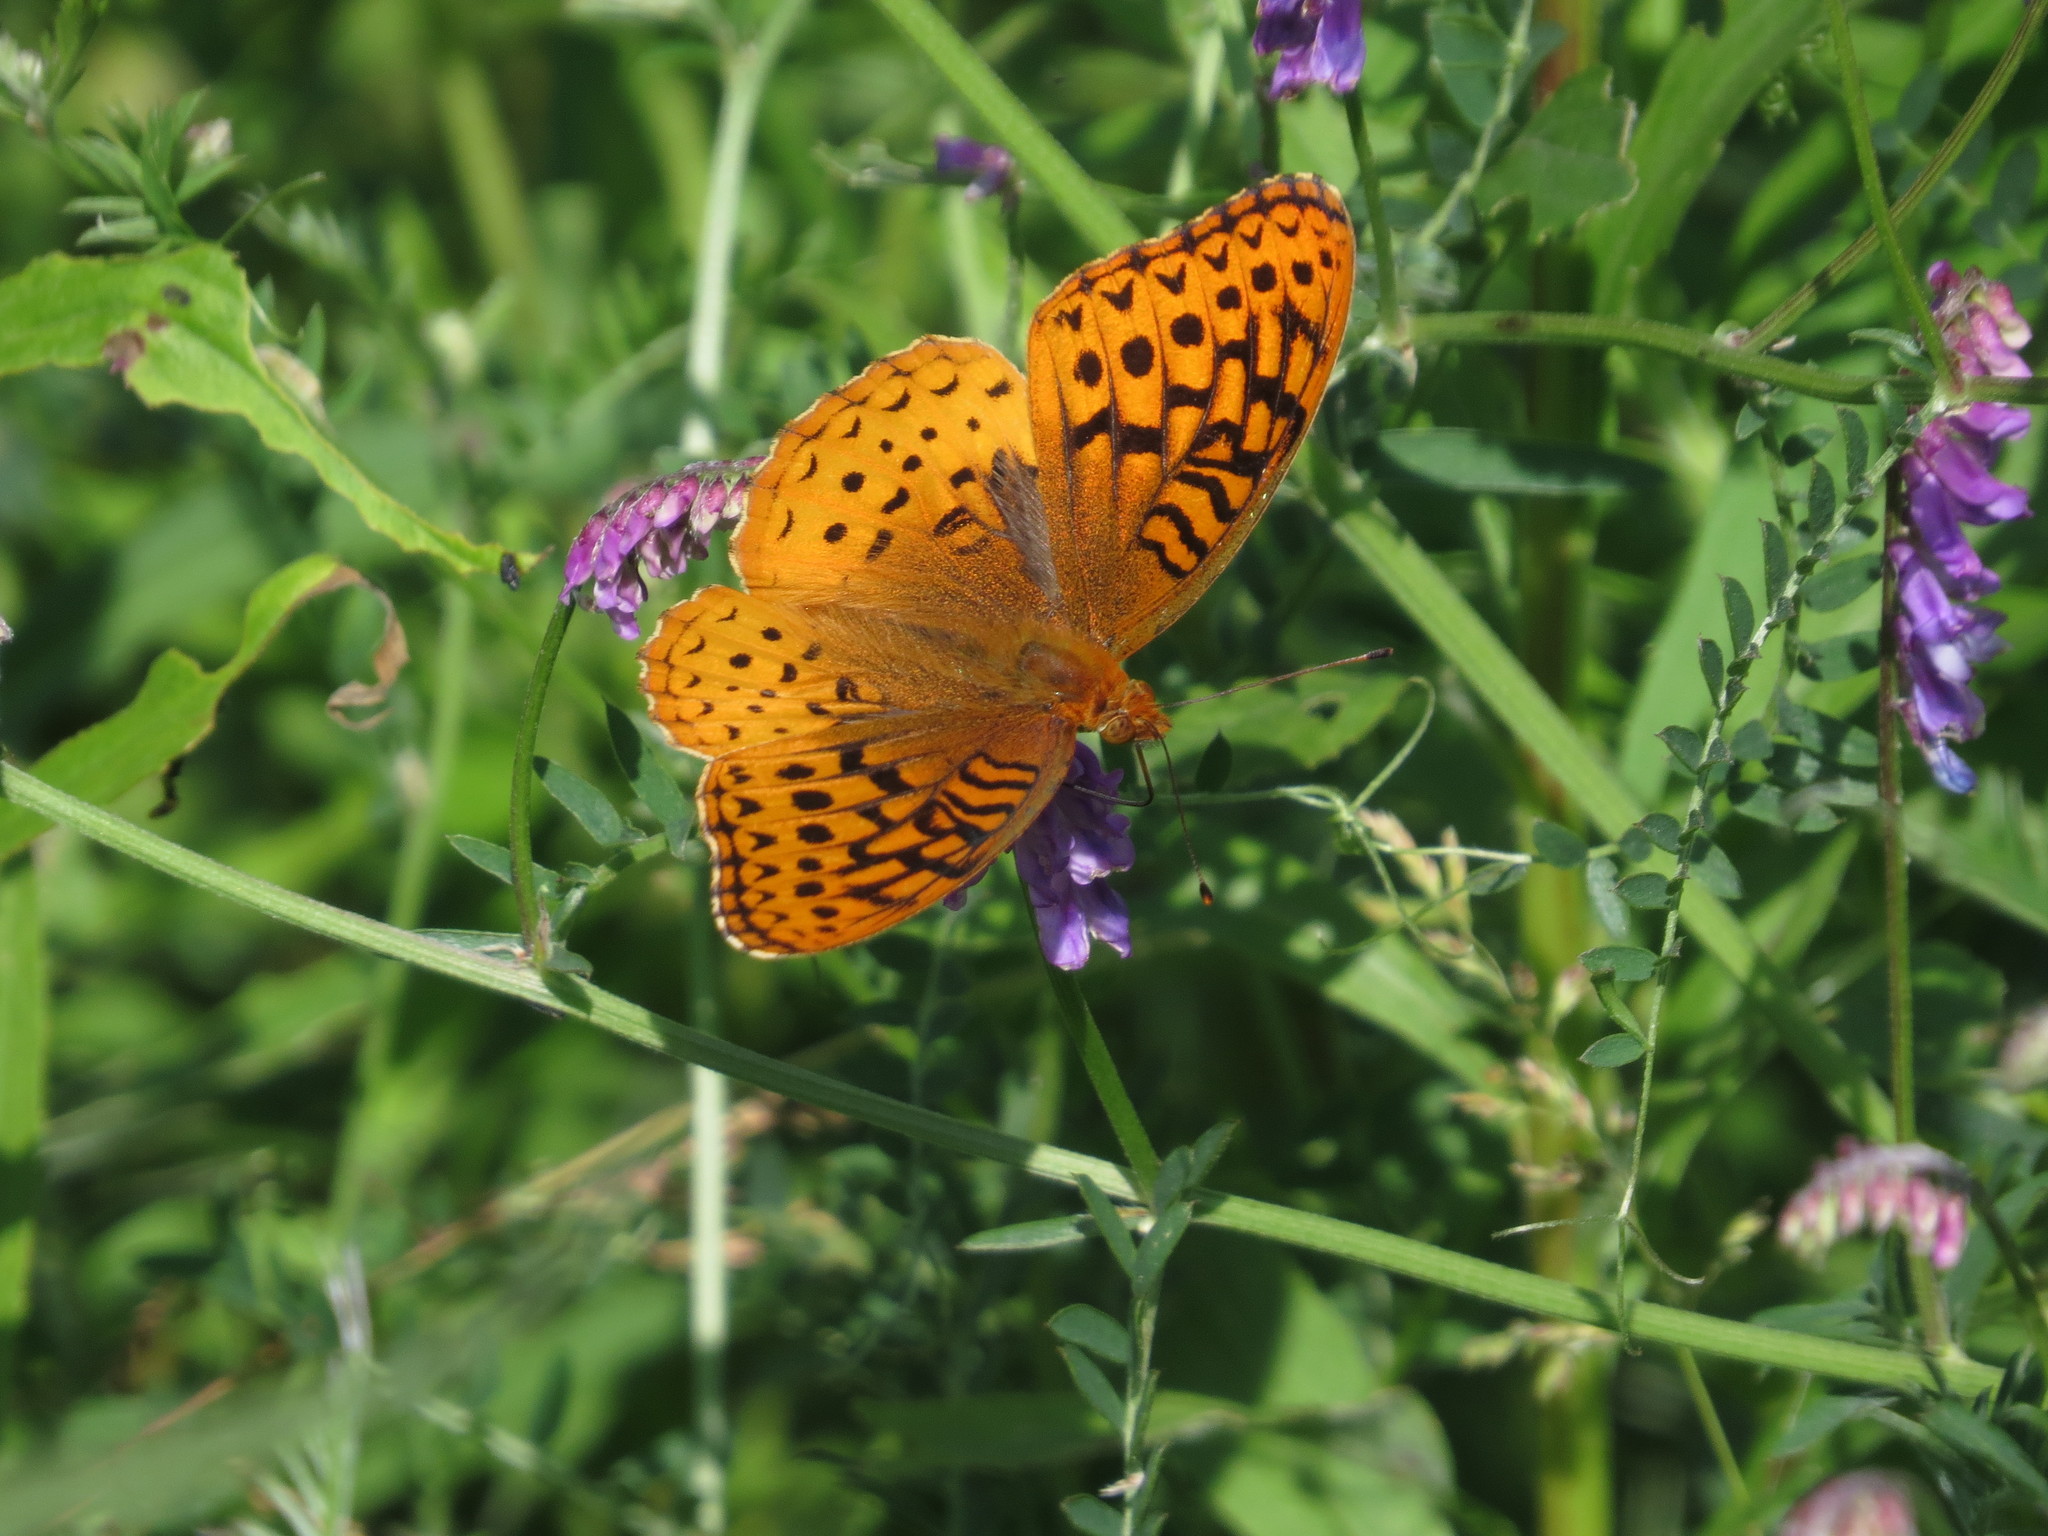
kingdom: Animalia
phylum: Arthropoda
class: Insecta
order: Lepidoptera
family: Nymphalidae
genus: Speyeria
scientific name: Speyeria cybele
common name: Great spangled fritillary
